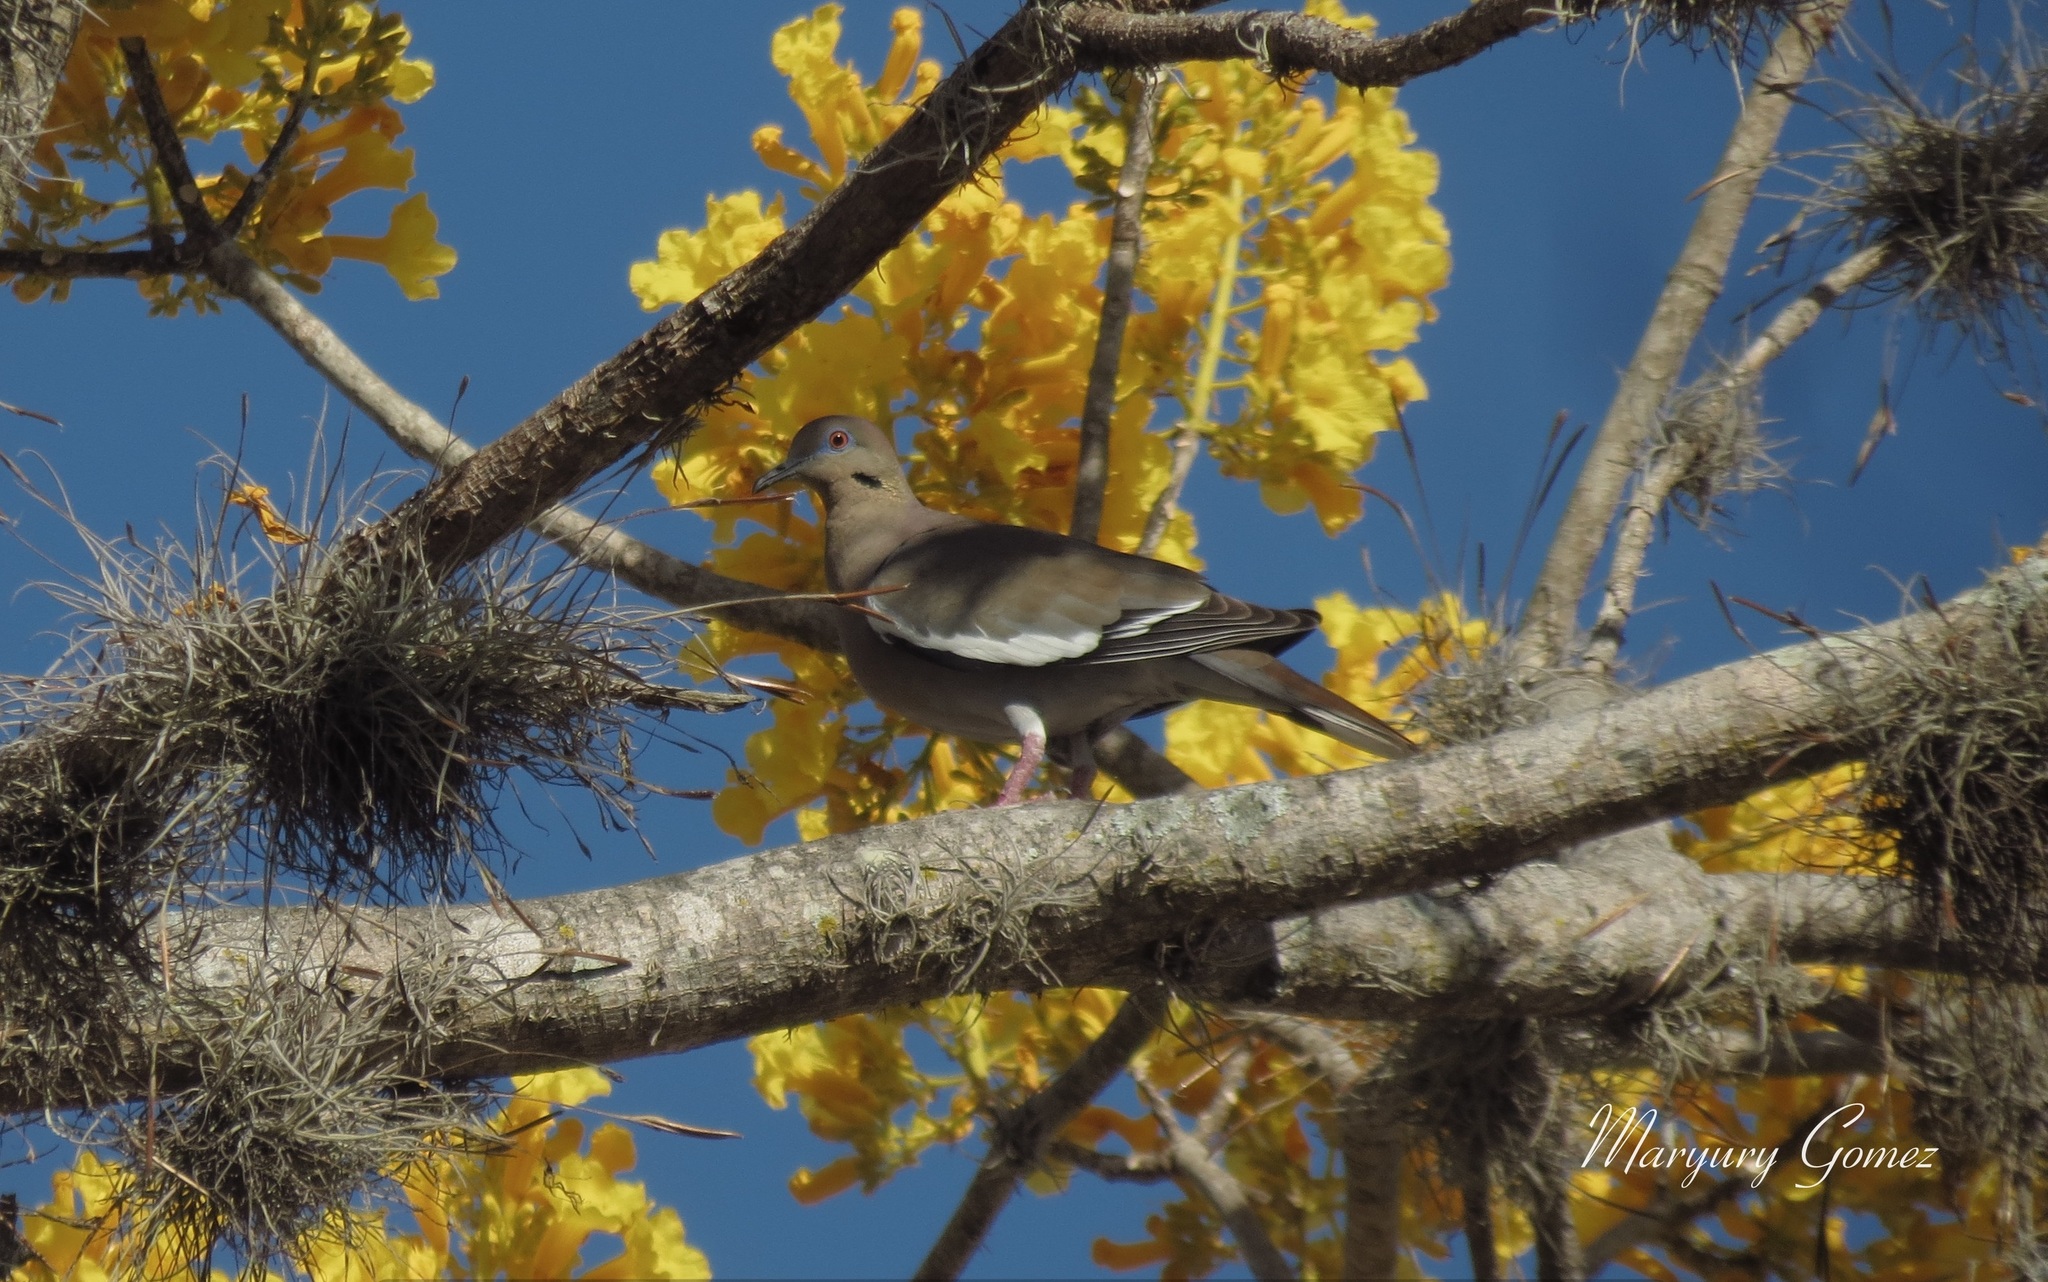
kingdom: Animalia
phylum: Chordata
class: Aves
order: Columbiformes
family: Columbidae
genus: Zenaida
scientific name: Zenaida asiatica
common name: White-winged dove
